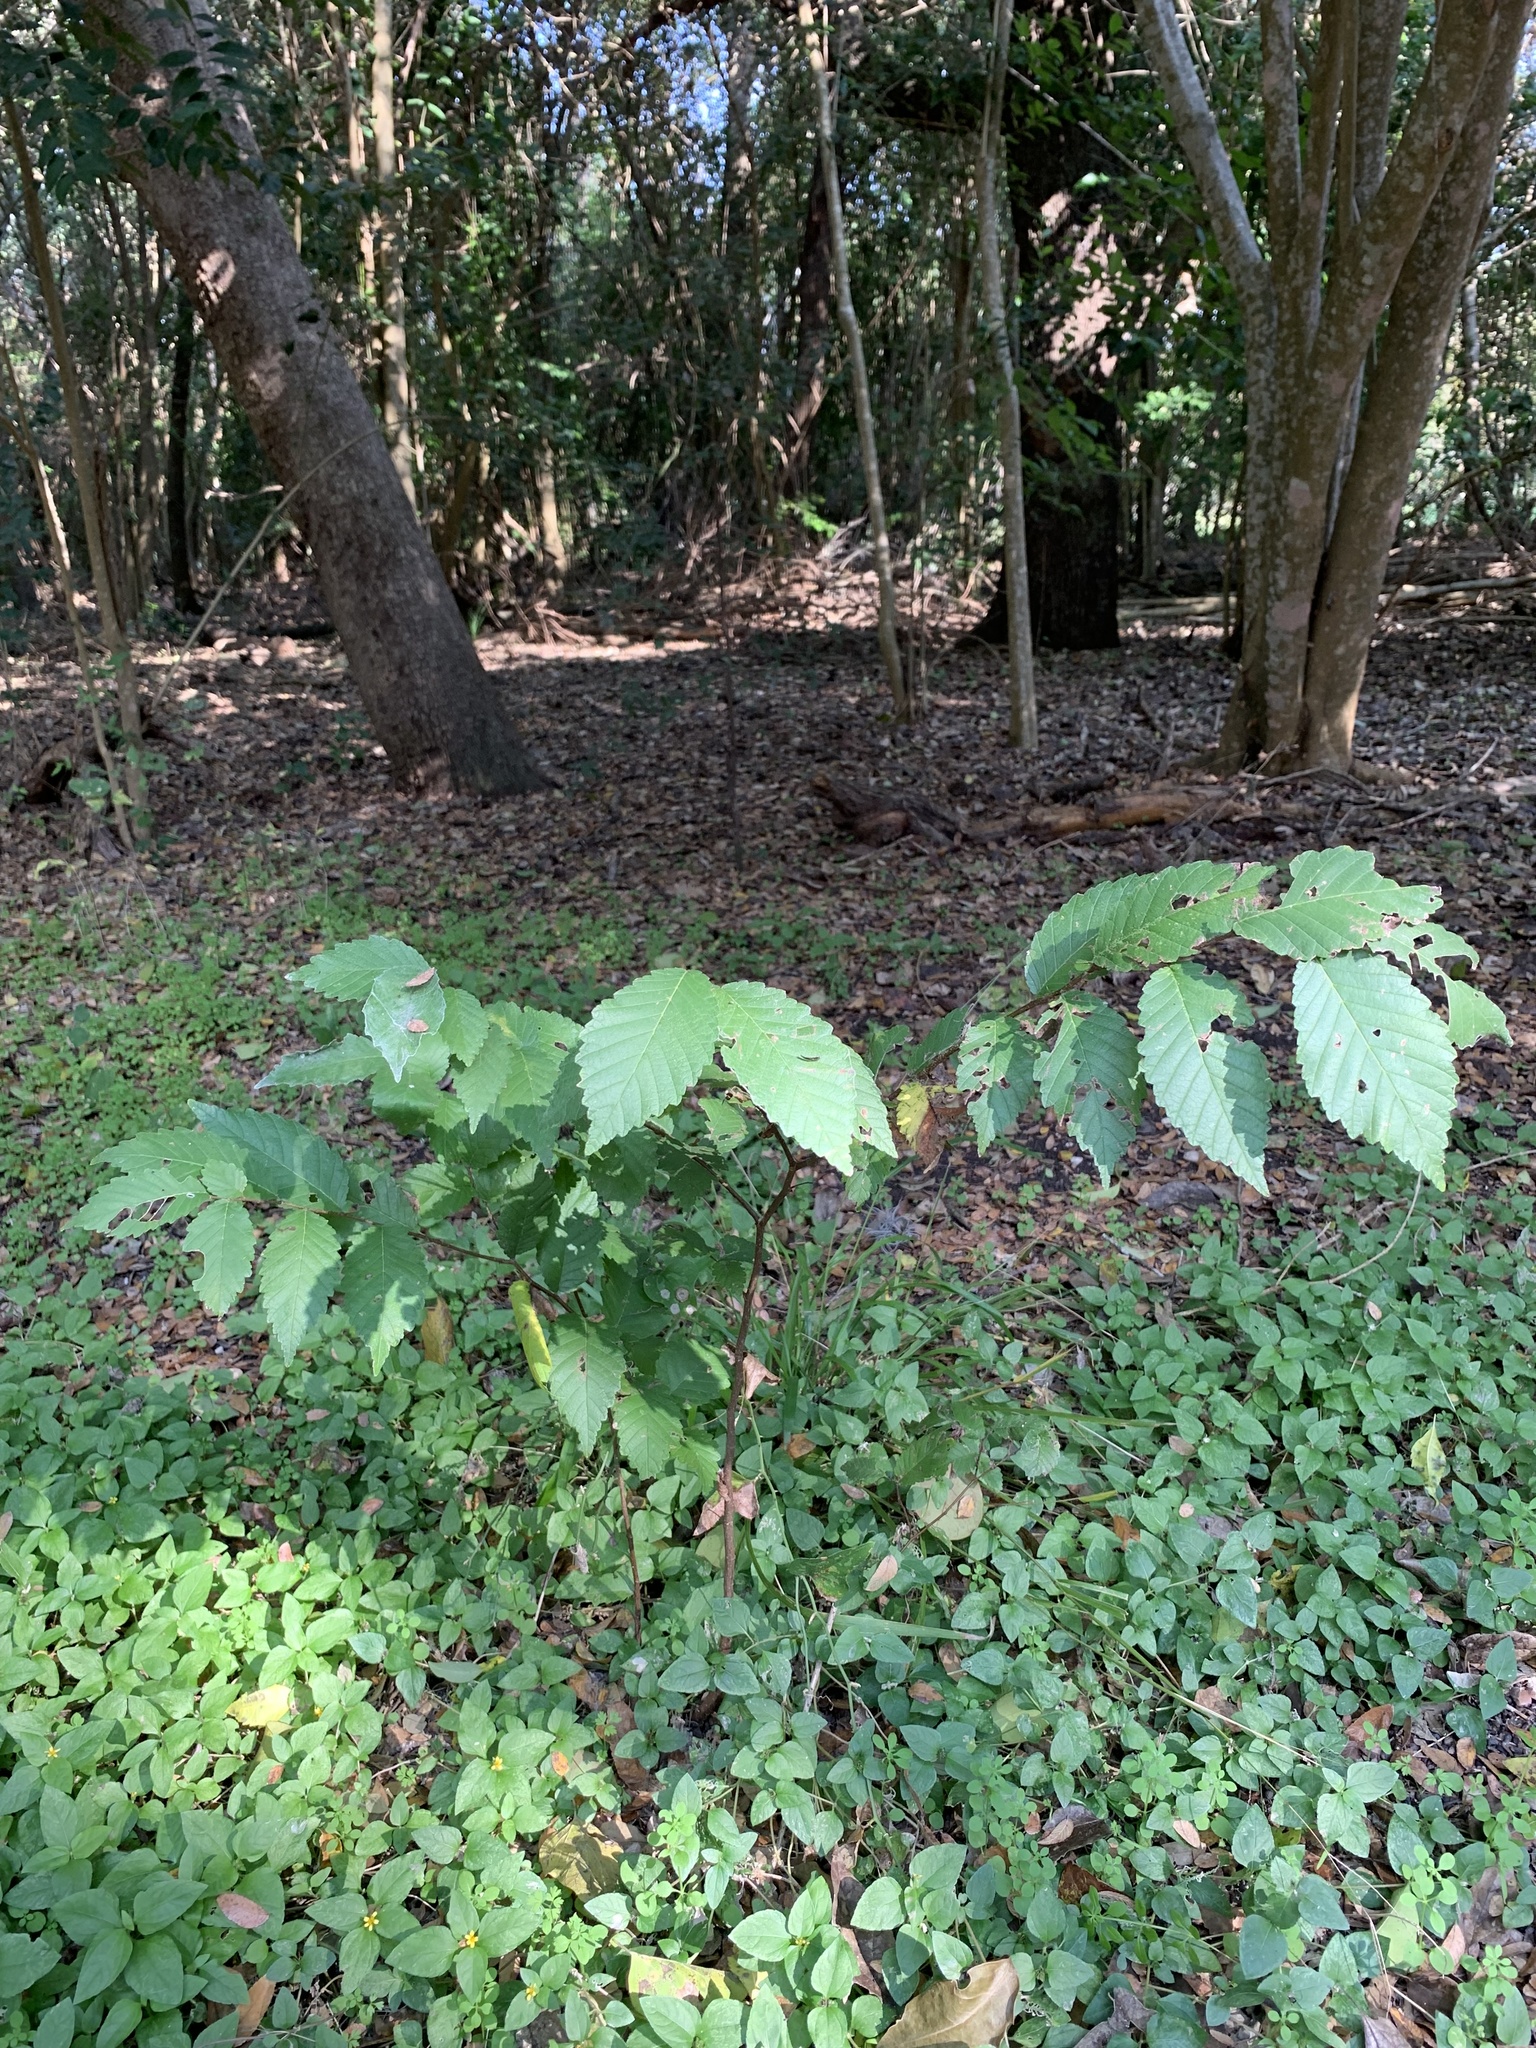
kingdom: Plantae
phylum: Tracheophyta
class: Magnoliopsida
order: Rosales
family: Ulmaceae
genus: Ulmus
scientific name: Ulmus americana
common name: American elm
